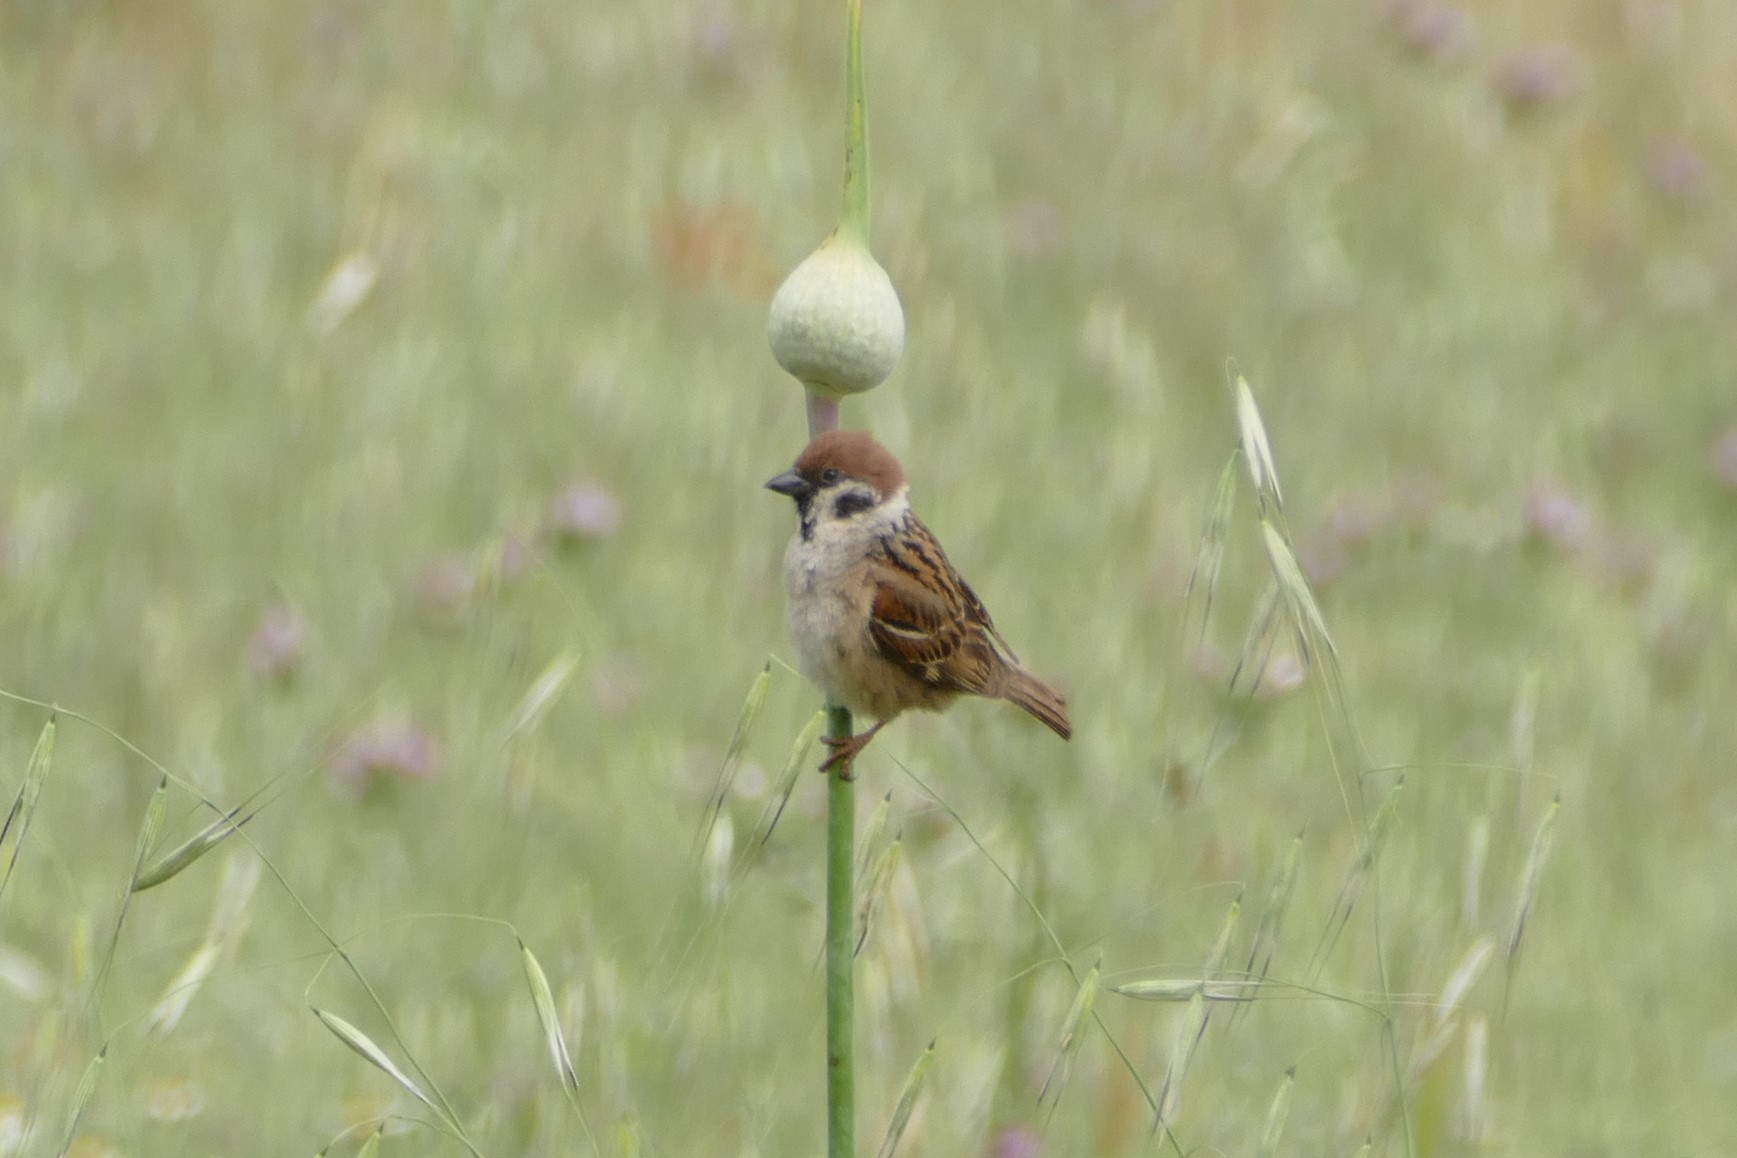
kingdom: Animalia
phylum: Chordata
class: Aves
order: Passeriformes
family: Passeridae
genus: Passer
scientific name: Passer montanus
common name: Eurasian tree sparrow
